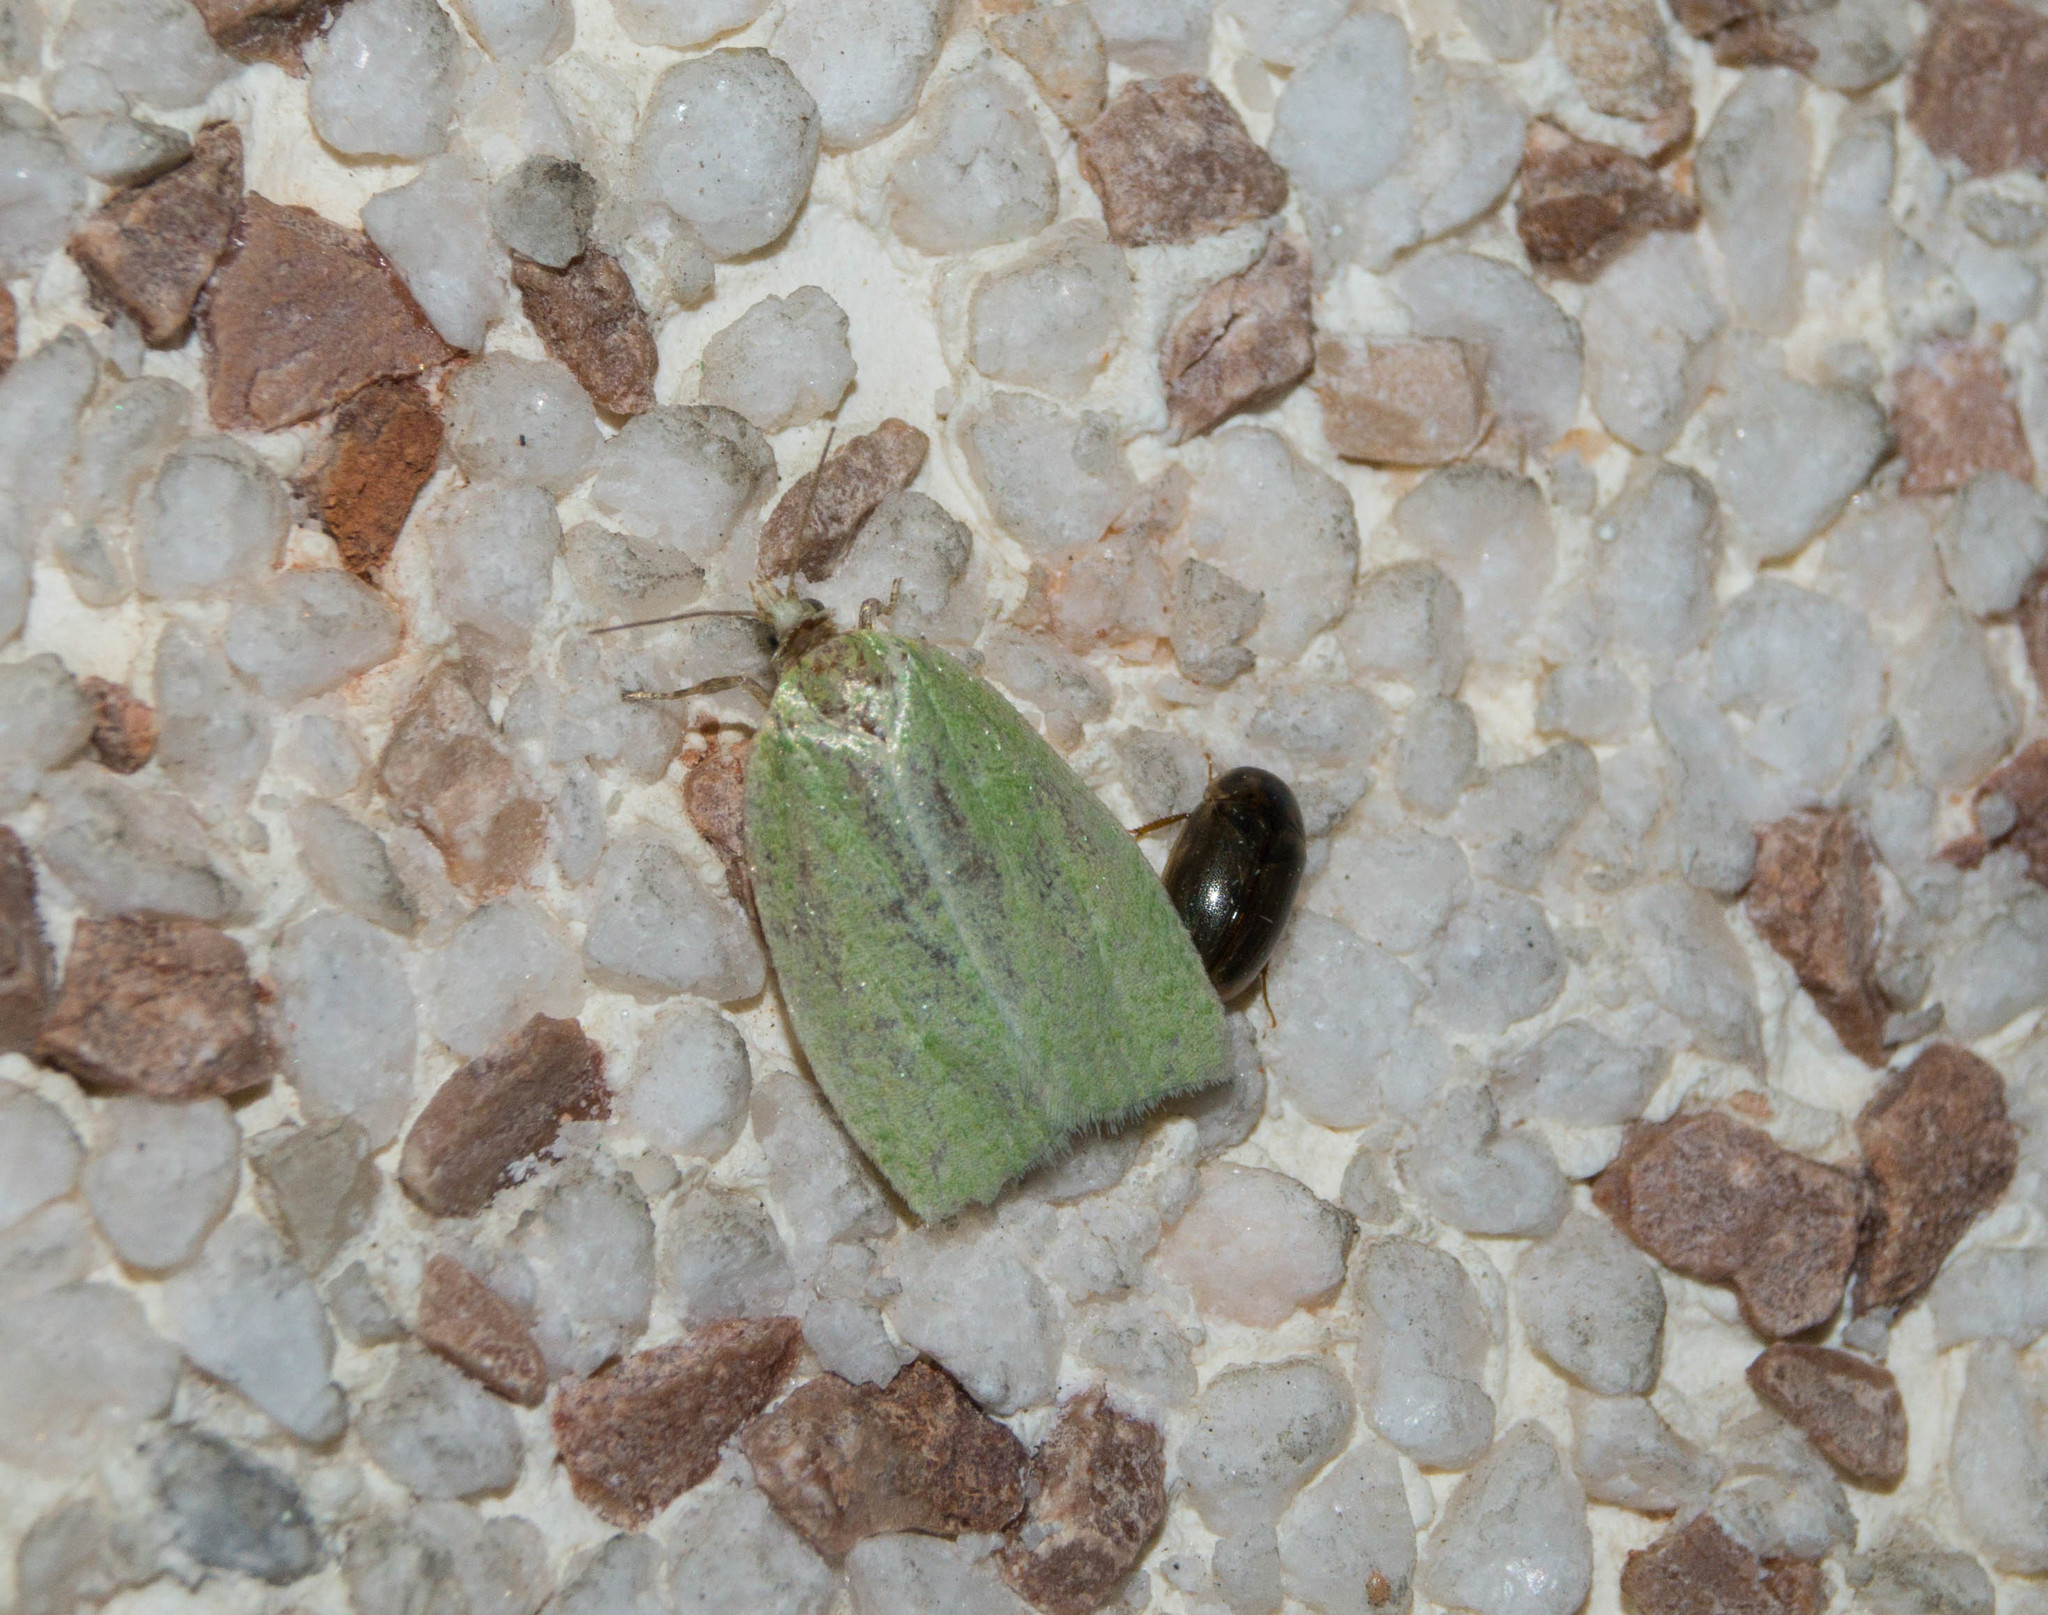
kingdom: Animalia
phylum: Arthropoda
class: Insecta
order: Lepidoptera
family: Tortricidae
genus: Tortrix
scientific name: Tortrix viridana
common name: Green oak tortrix
